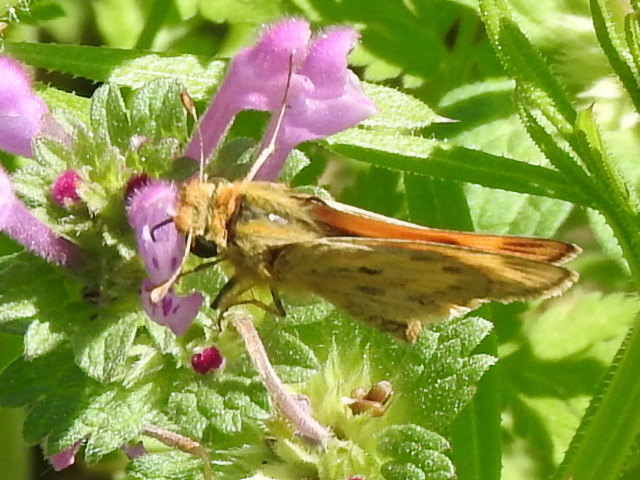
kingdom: Animalia
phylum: Arthropoda
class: Insecta
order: Lepidoptera
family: Hesperiidae
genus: Hylephila
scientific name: Hylephila phyleus
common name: Fiery skipper
